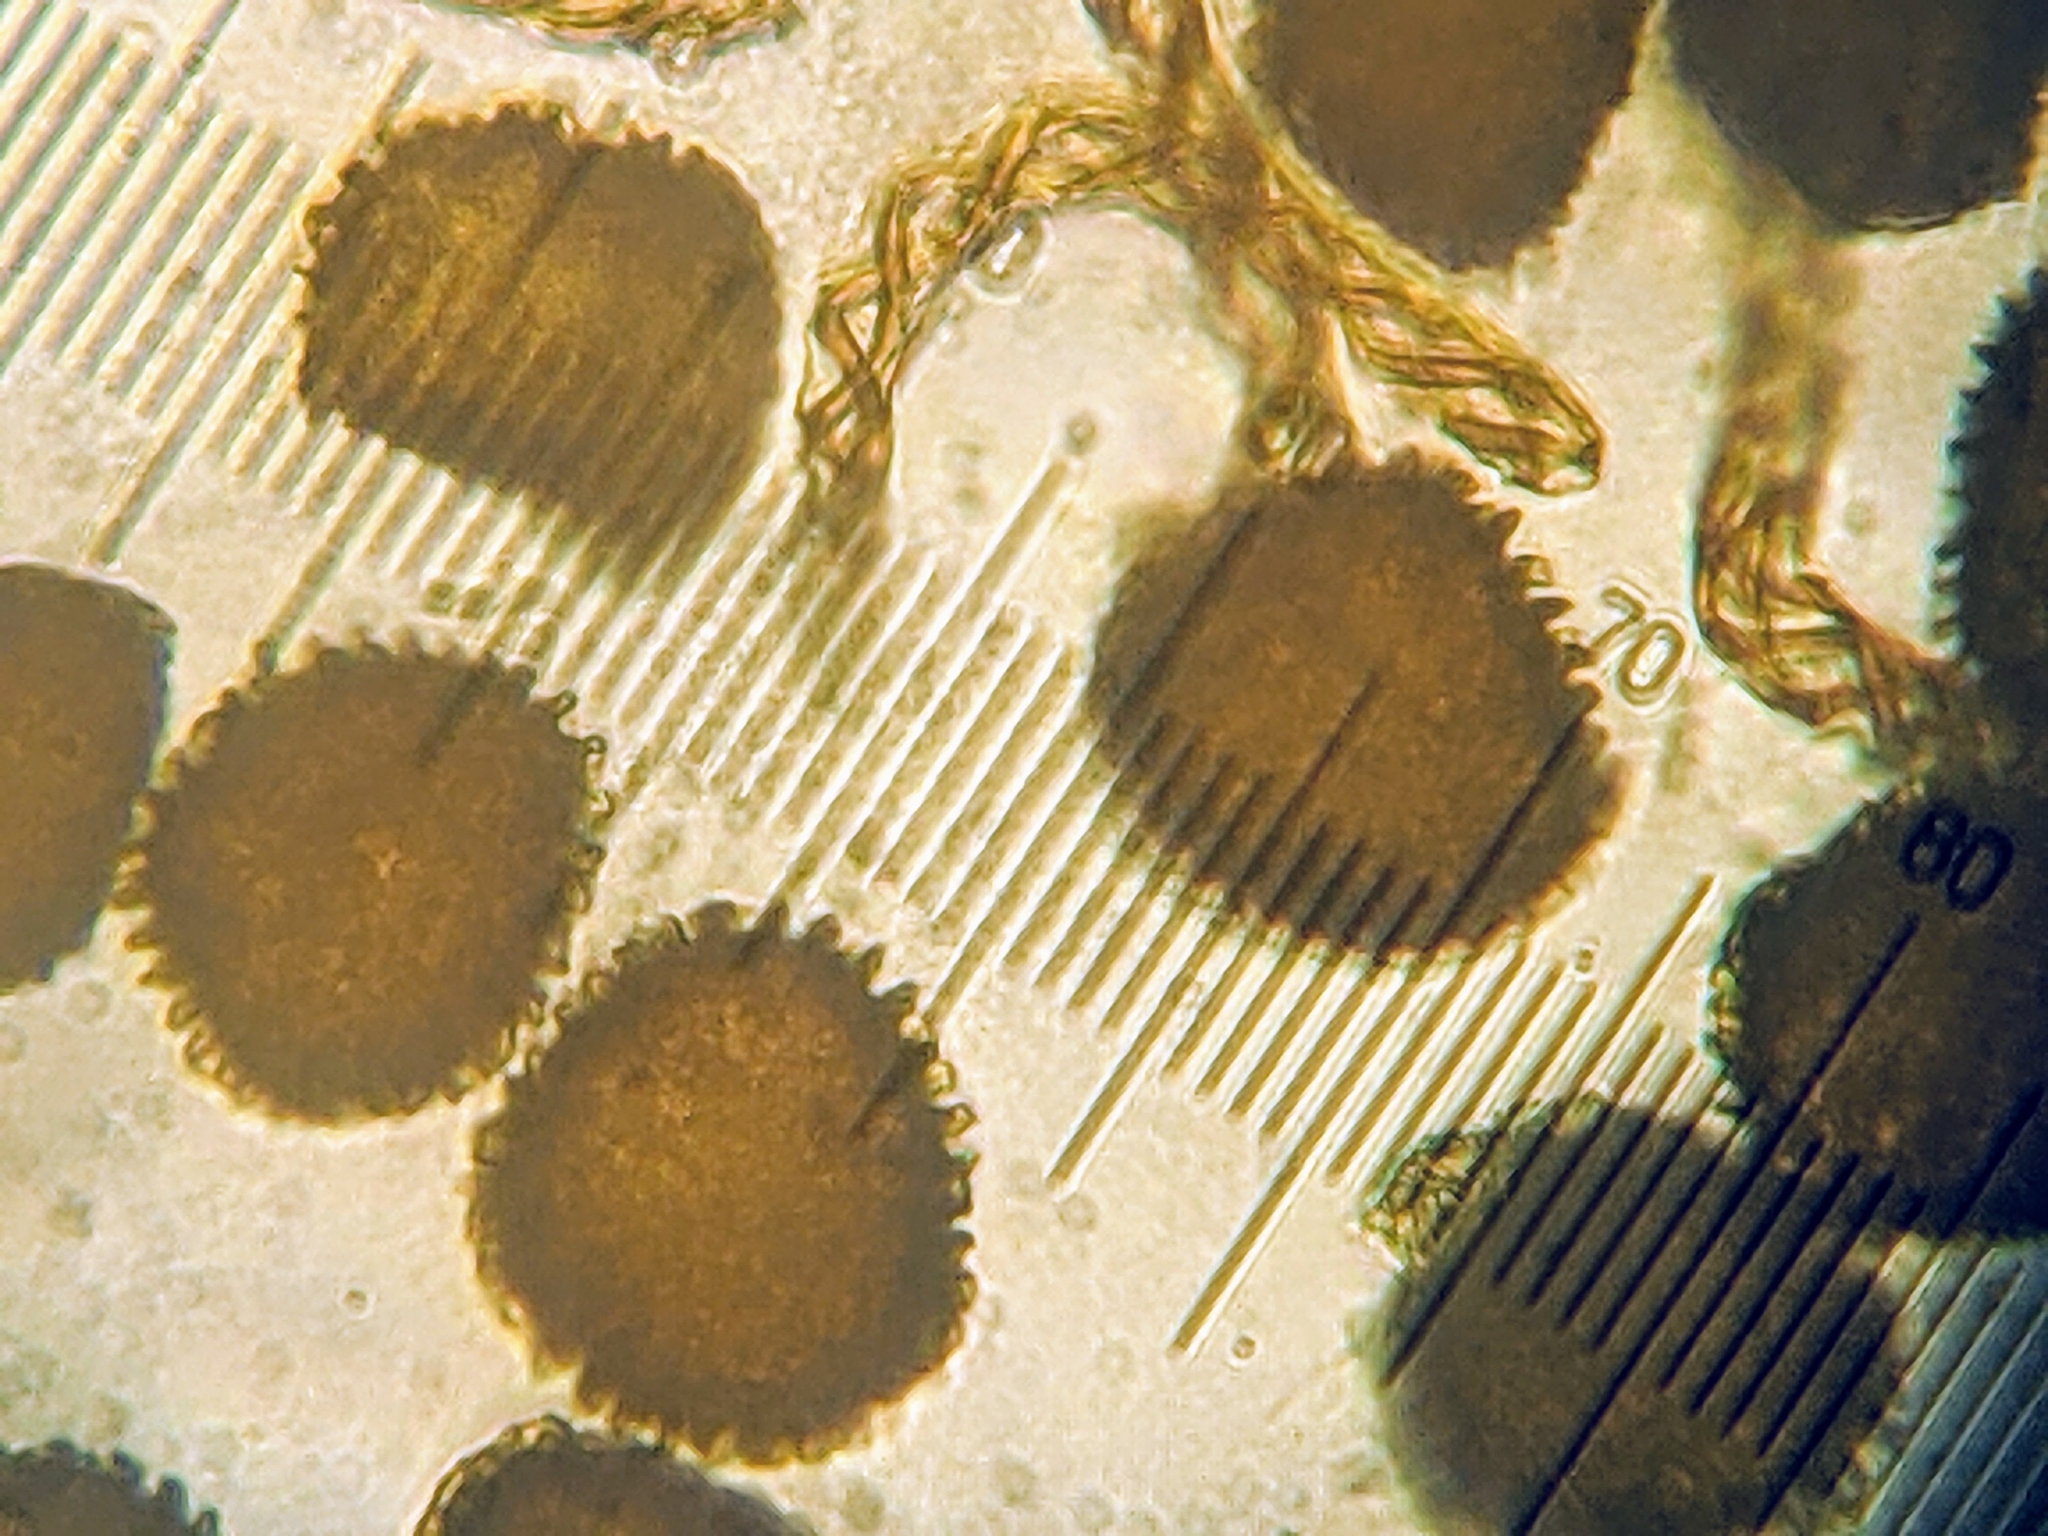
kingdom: Plantae
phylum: Marchantiophyta
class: Jungermanniopsida
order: Fossombroniales
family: Fossombroniaceae
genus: Fossombronia
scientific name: Fossombronia wondraczekii
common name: Acid frillwort
